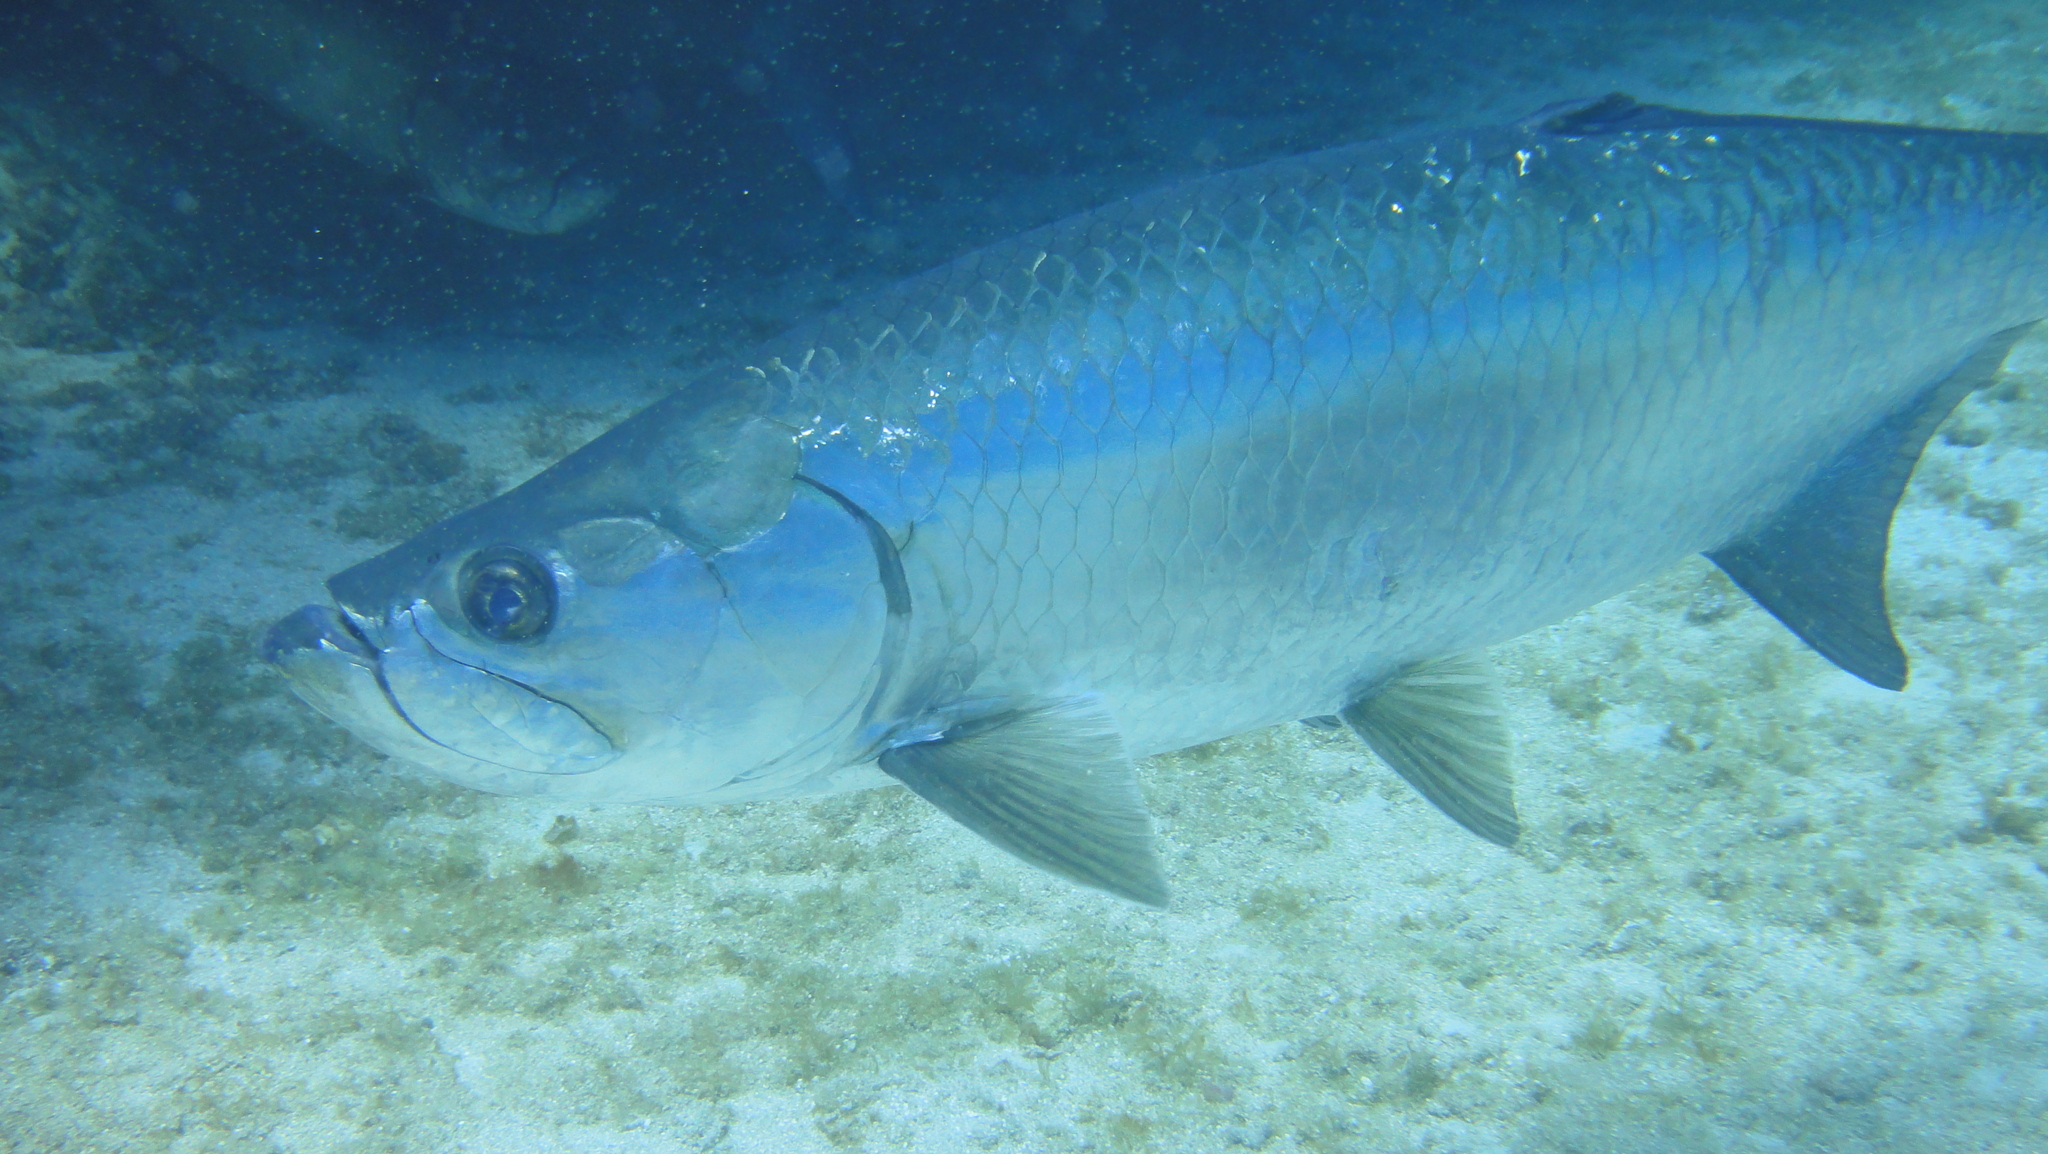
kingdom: Animalia
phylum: Chordata
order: Elopiformes
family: Megalopidae
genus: Megalops
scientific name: Megalops atlanticus
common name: Tarpon
